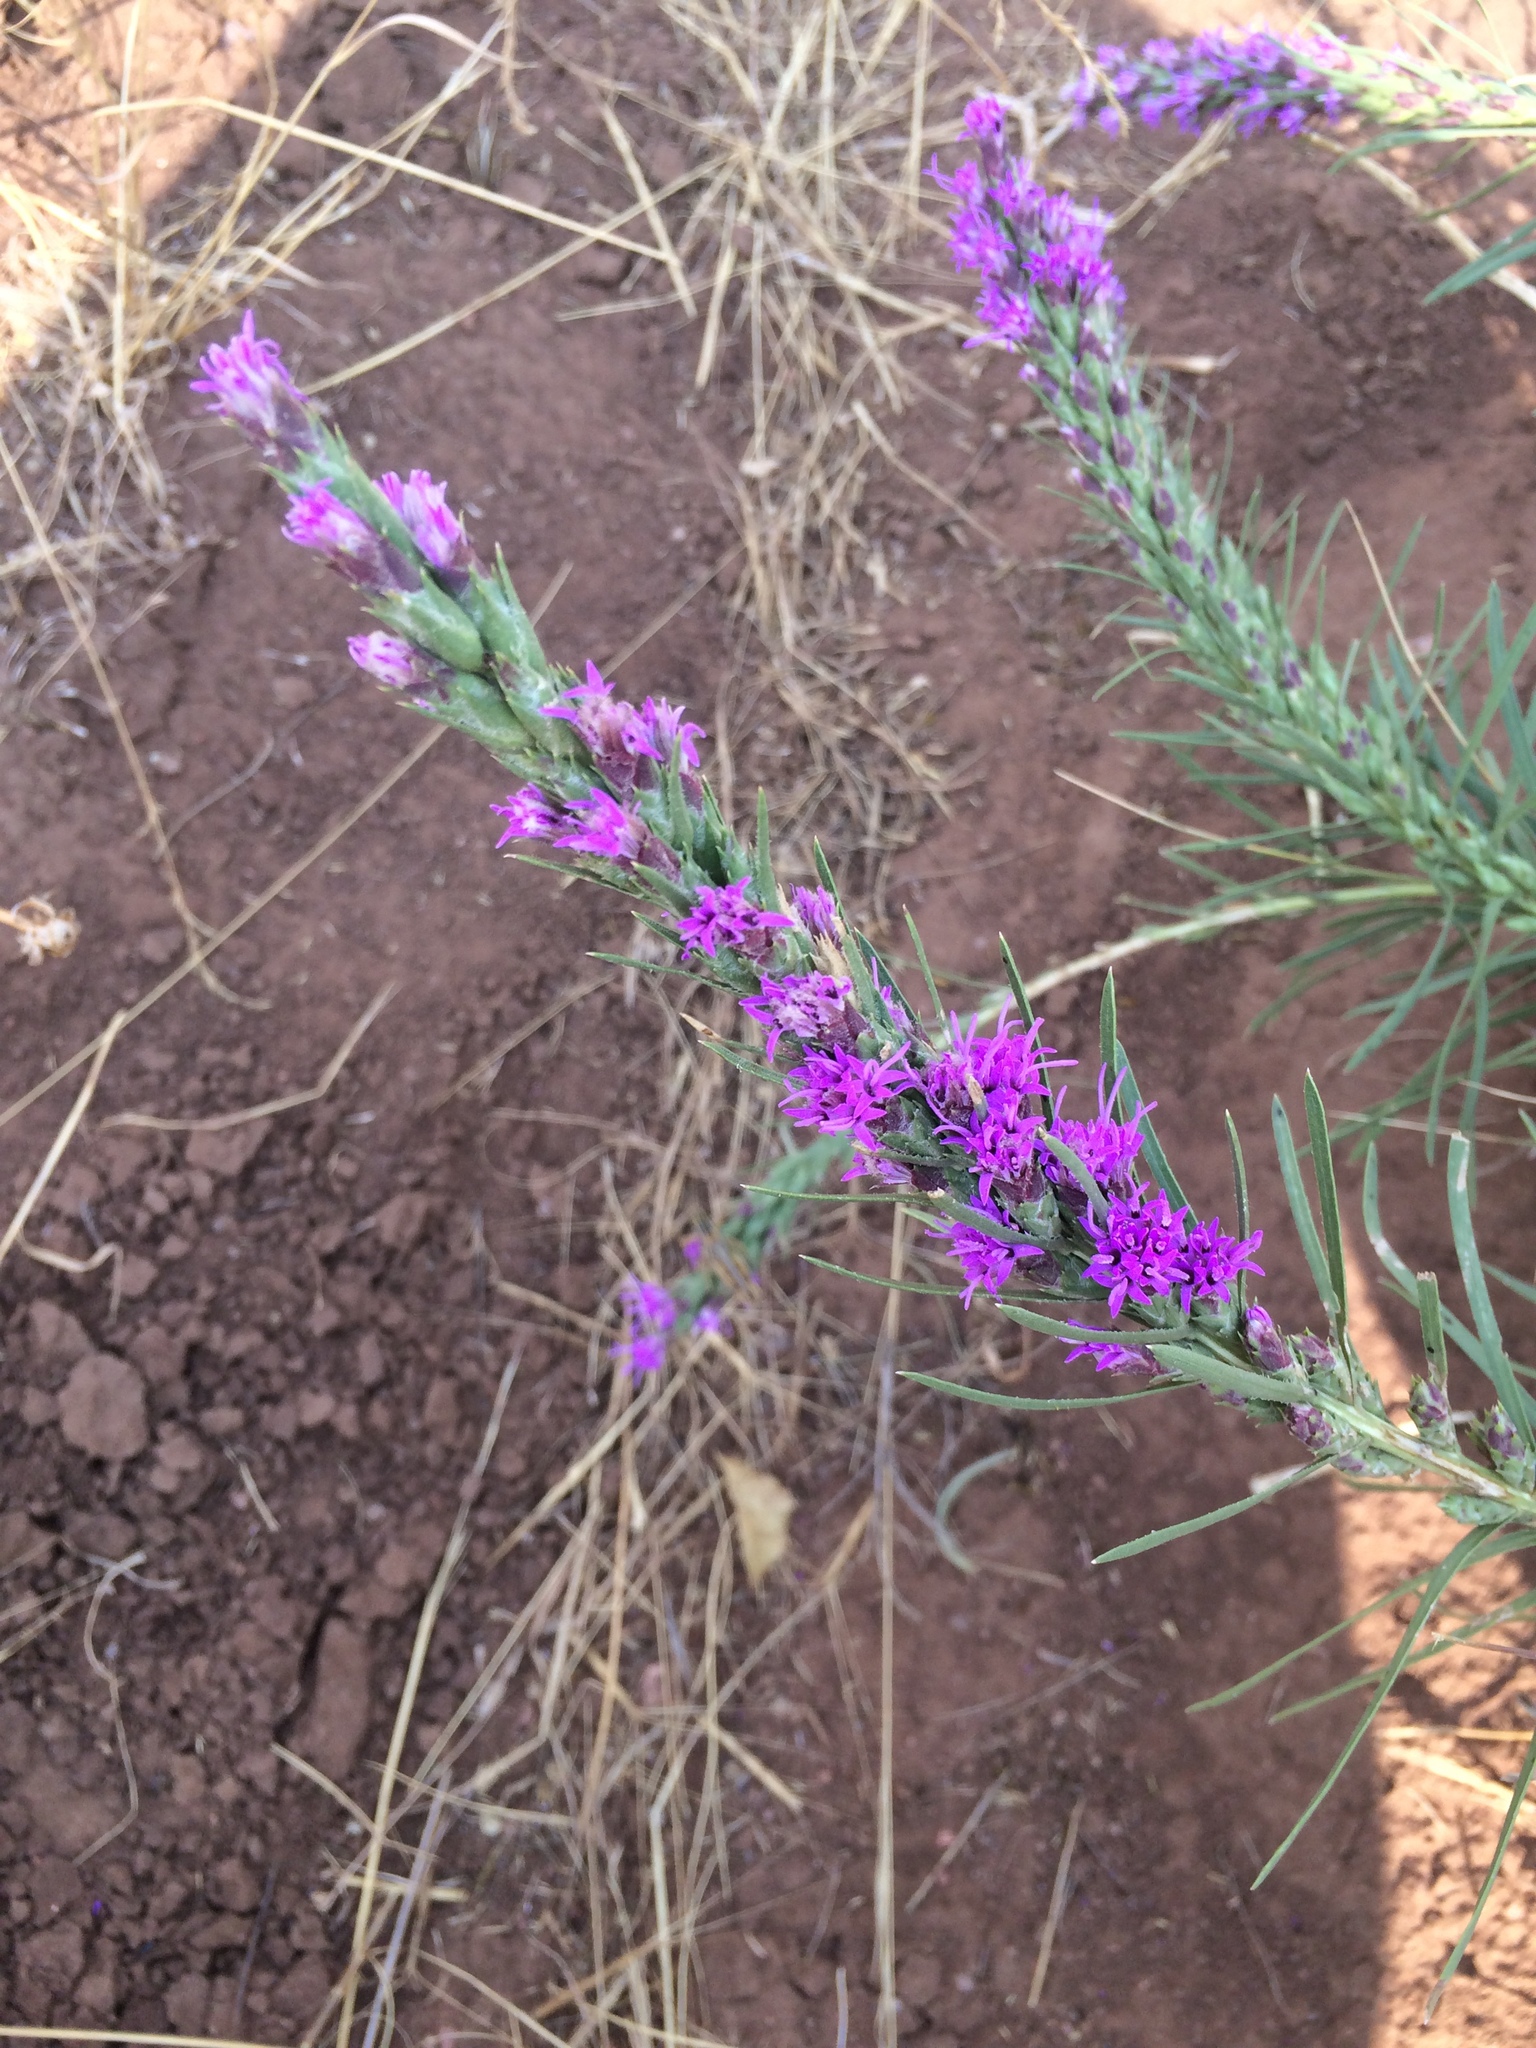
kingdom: Plantae
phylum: Tracheophyta
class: Magnoliopsida
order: Asterales
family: Asteraceae
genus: Liatris
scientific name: Liatris punctata
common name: Dotted gayfeather
